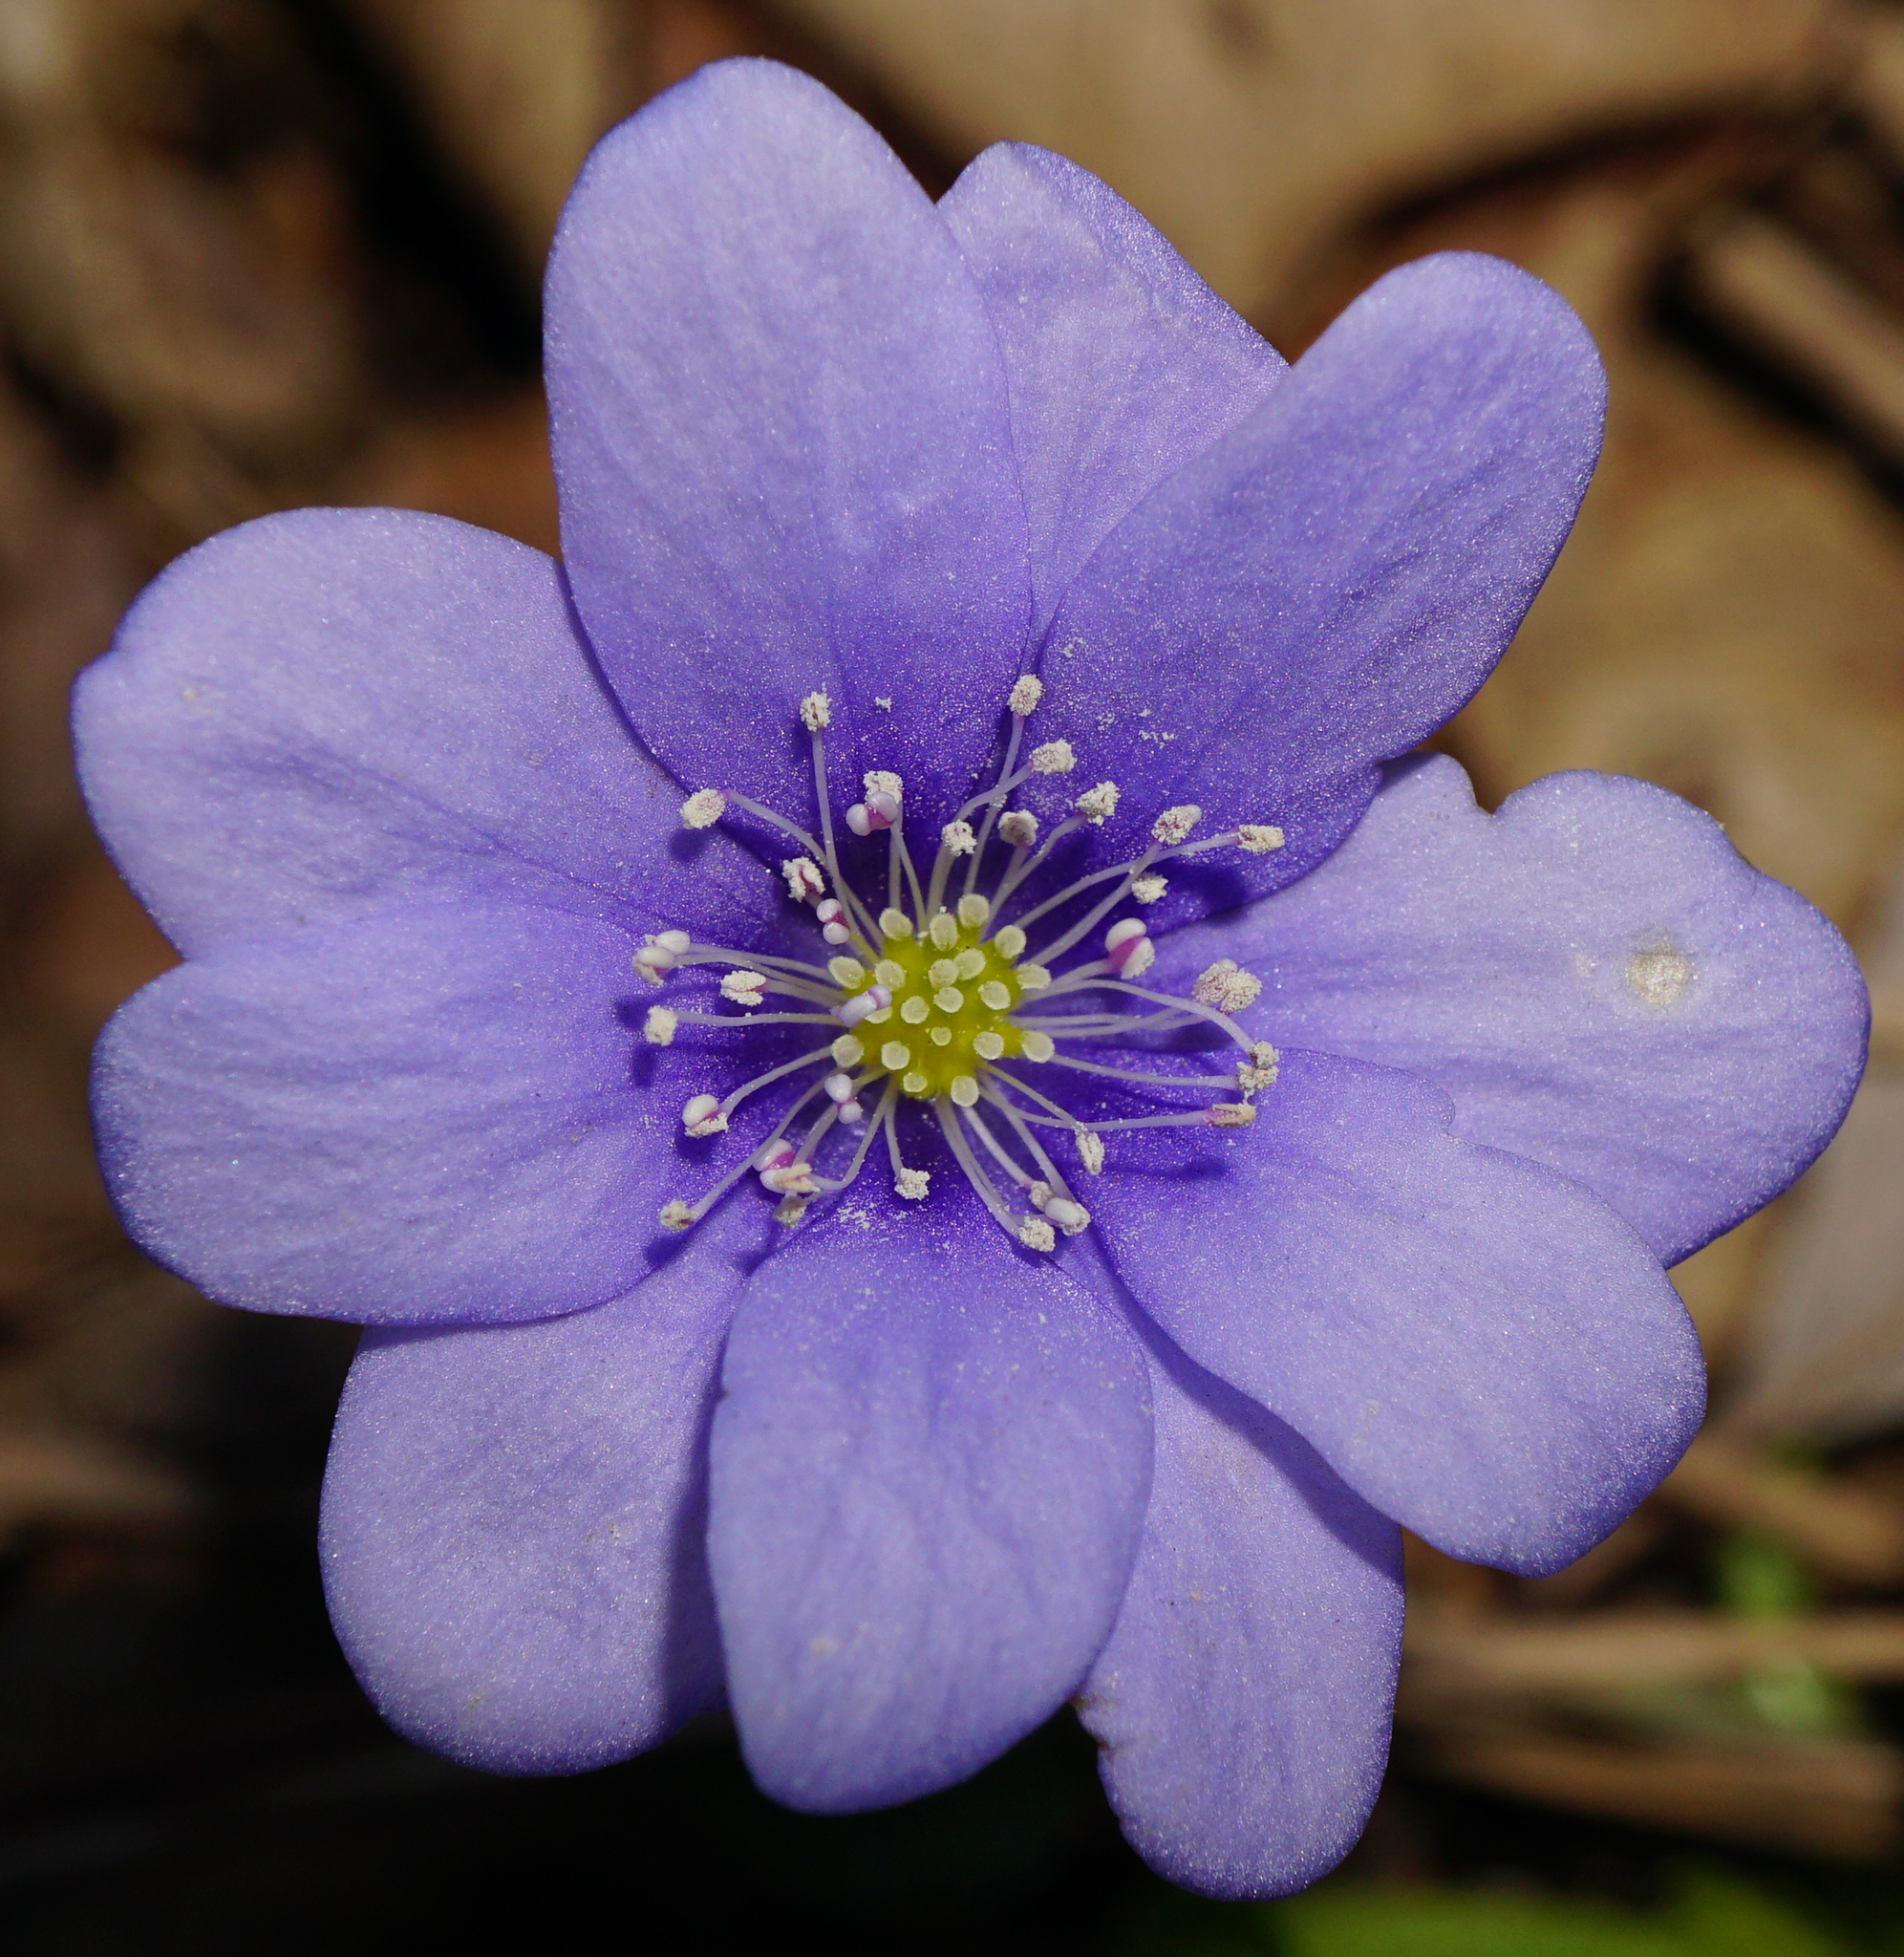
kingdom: Plantae
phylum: Tracheophyta
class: Magnoliopsida
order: Ranunculales
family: Ranunculaceae
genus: Hepatica
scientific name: Hepatica nobilis
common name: Liverleaf
